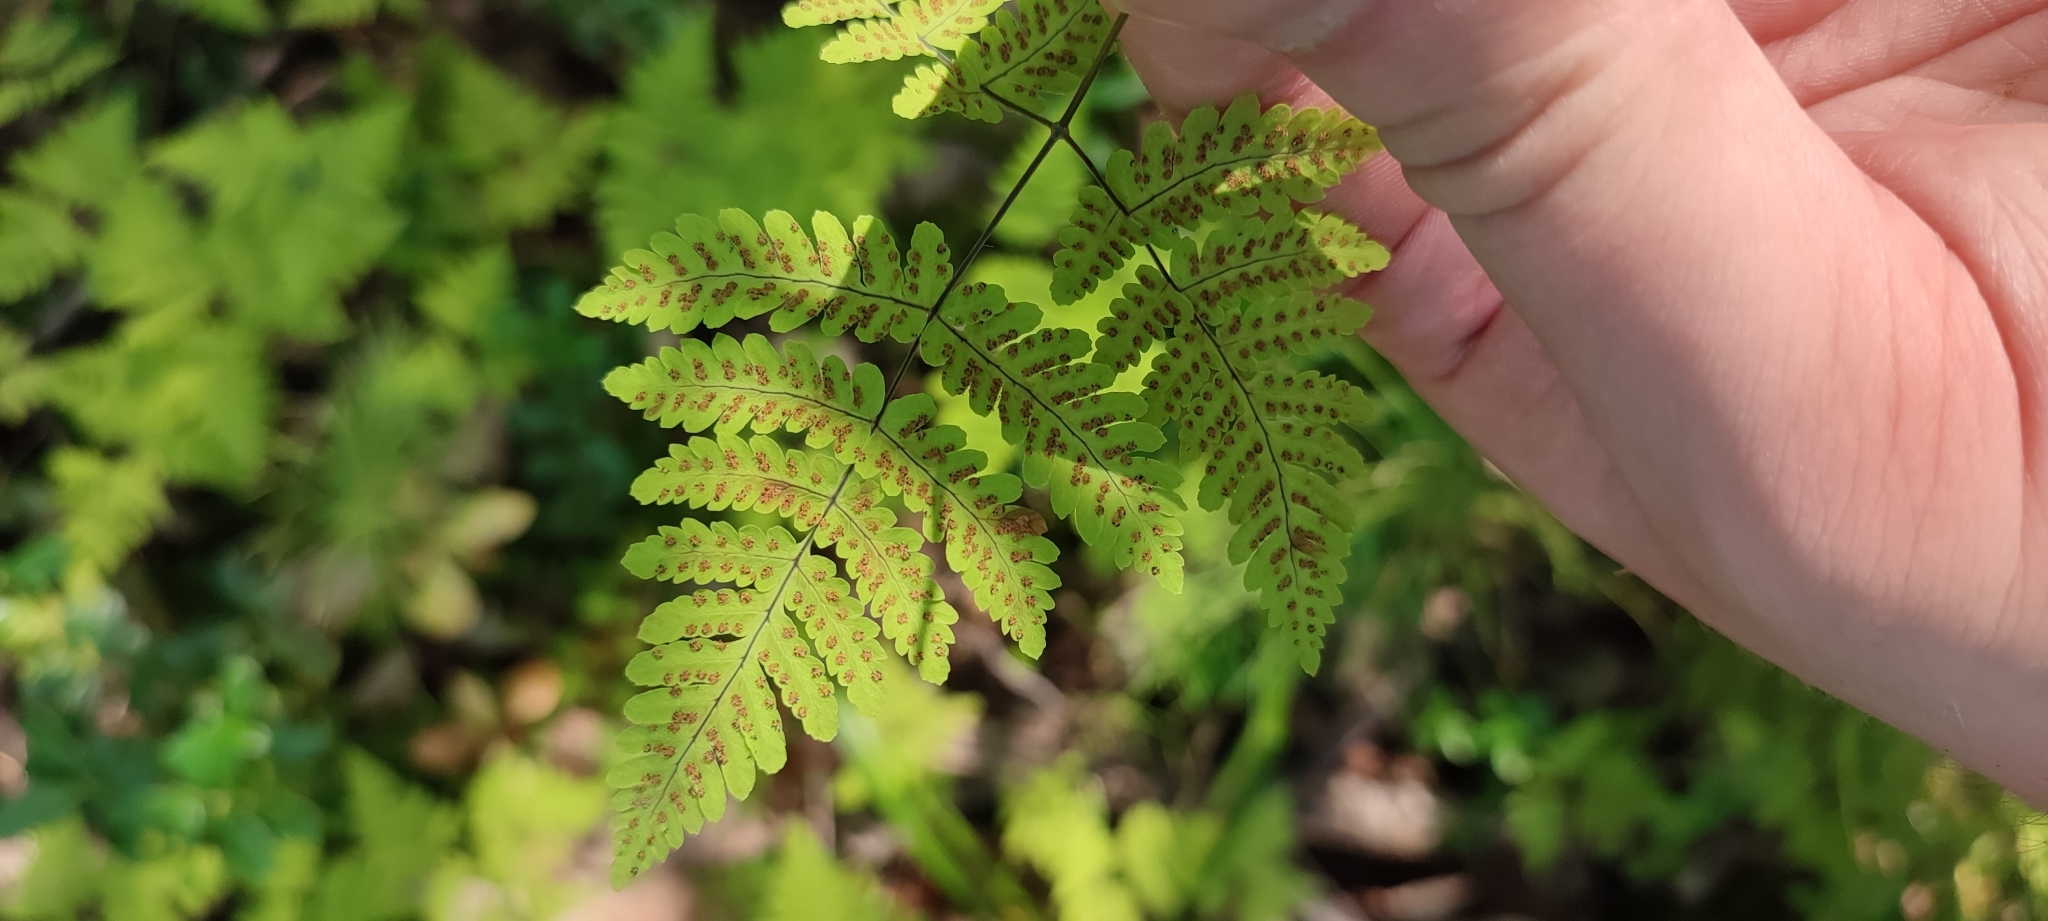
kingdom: Plantae
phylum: Tracheophyta
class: Polypodiopsida
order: Polypodiales
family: Cystopteridaceae
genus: Gymnocarpium
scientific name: Gymnocarpium dryopteris
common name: Oak fern
